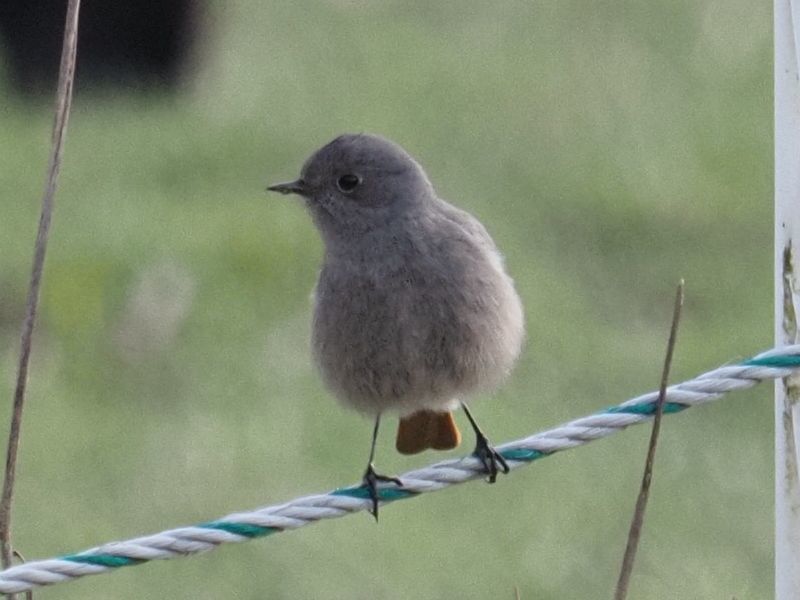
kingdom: Animalia
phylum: Chordata
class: Aves
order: Passeriformes
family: Muscicapidae
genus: Phoenicurus
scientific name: Phoenicurus ochruros
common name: Black redstart
